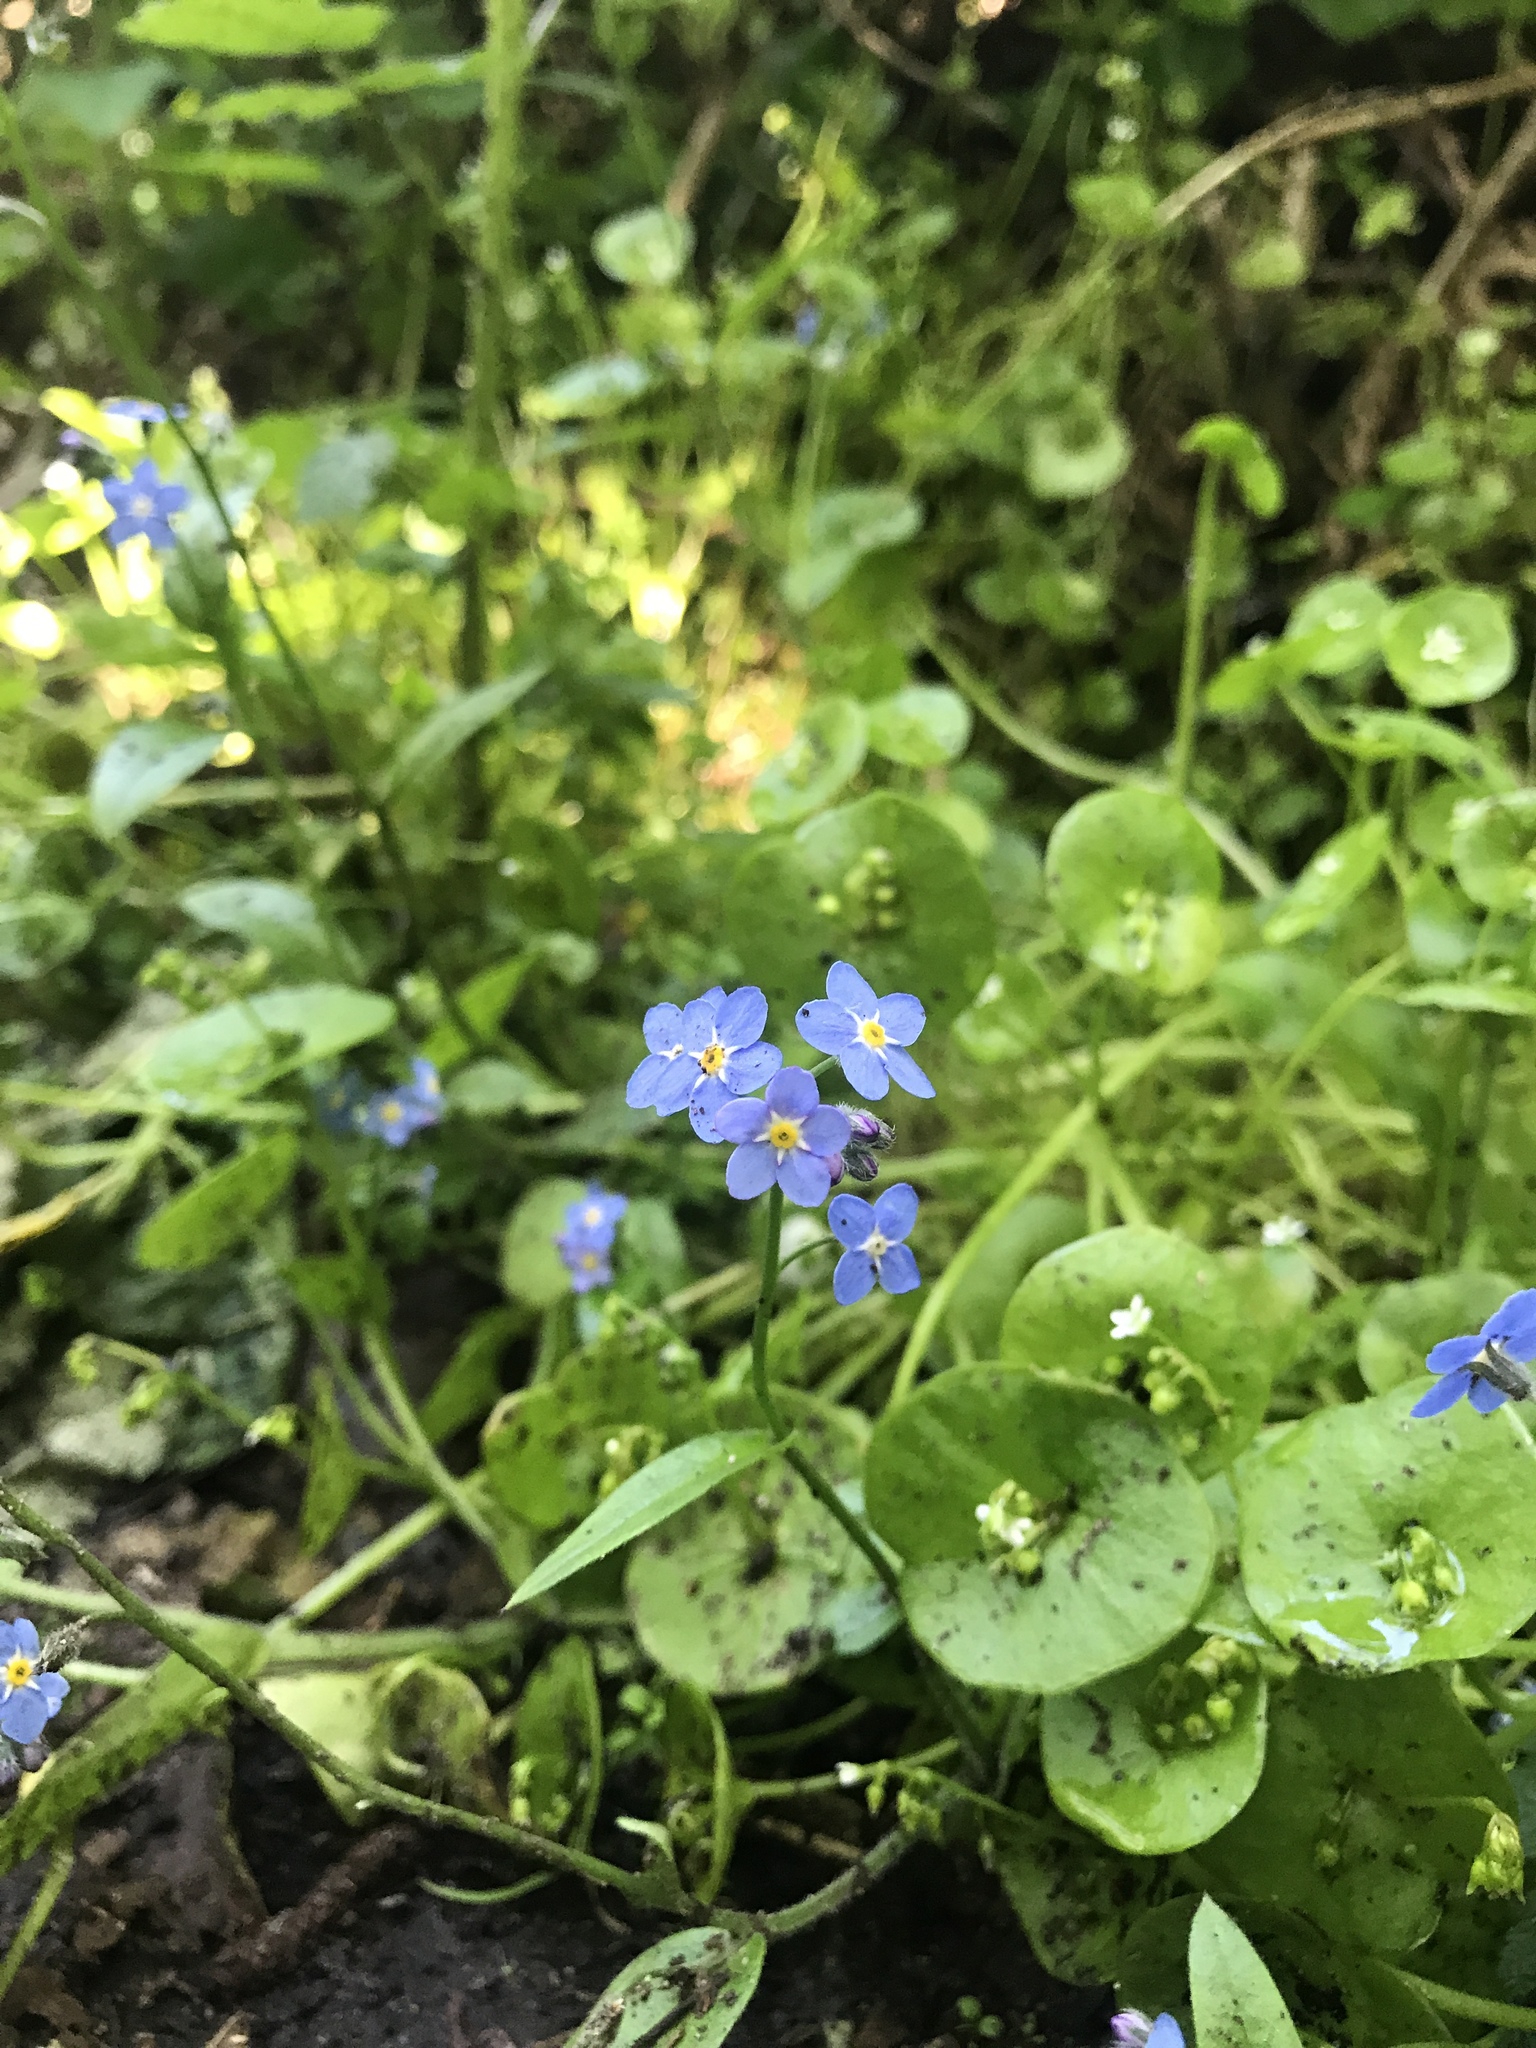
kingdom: Plantae
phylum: Tracheophyta
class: Magnoliopsida
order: Boraginales
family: Boraginaceae
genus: Myosotis
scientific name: Myosotis latifolia
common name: Broadleaf forget-me-not
